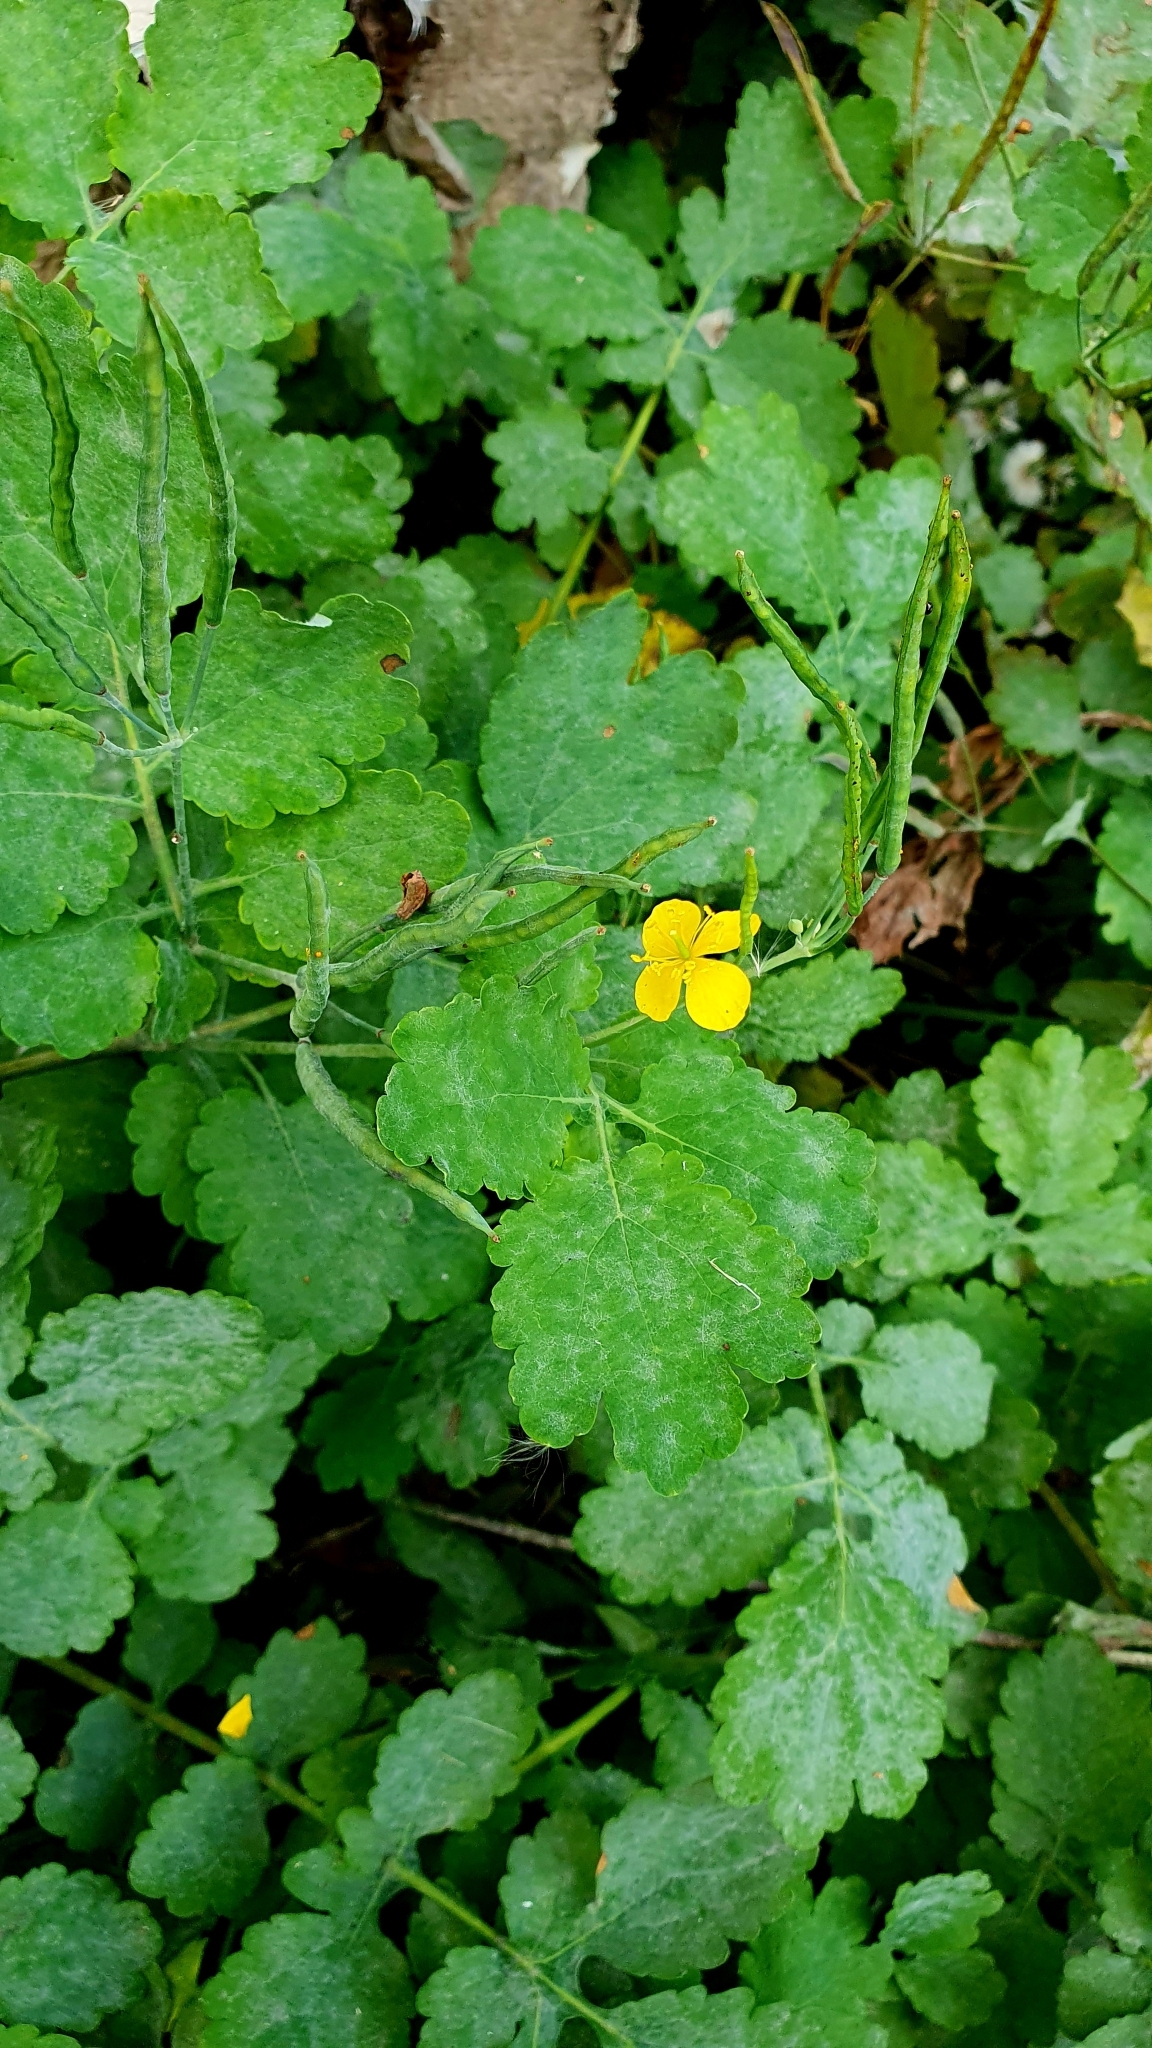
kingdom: Plantae
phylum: Tracheophyta
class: Magnoliopsida
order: Ranunculales
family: Papaveraceae
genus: Chelidonium
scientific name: Chelidonium majus
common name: Greater celandine
